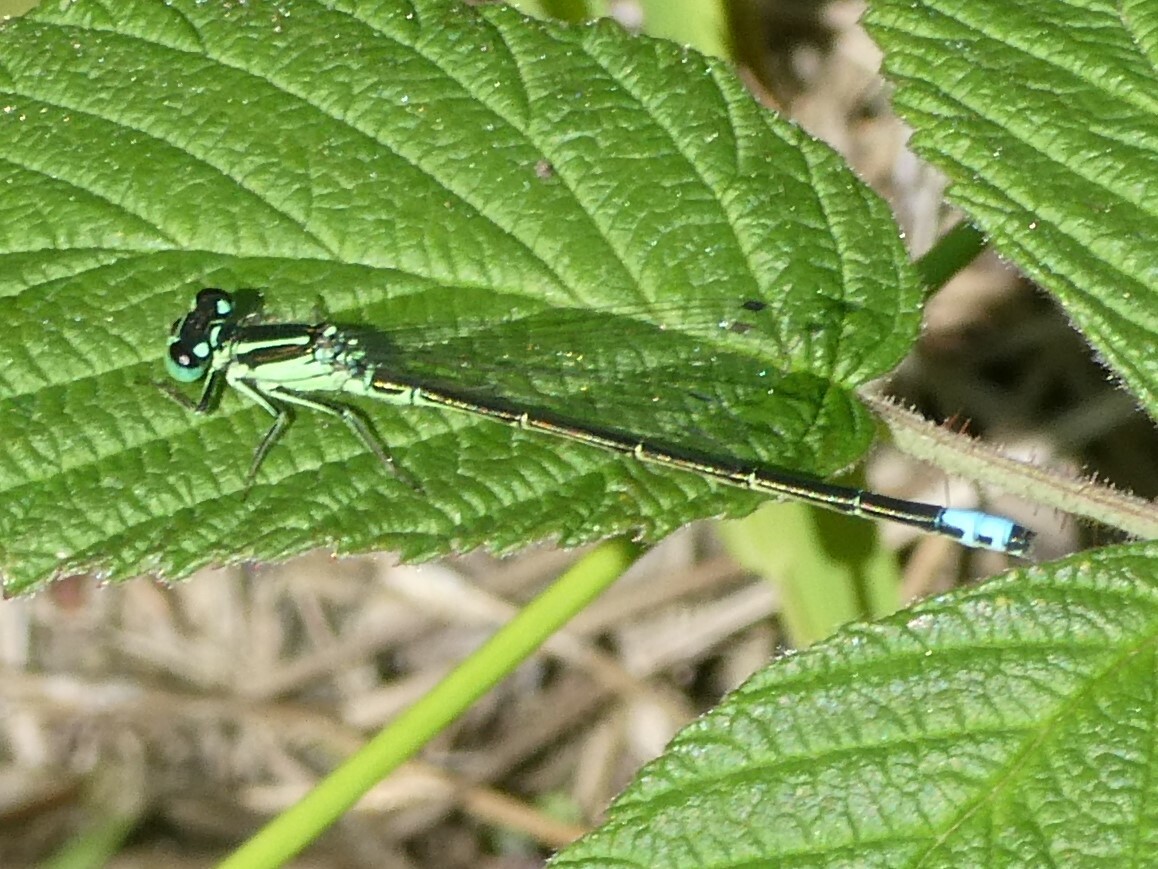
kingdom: Animalia
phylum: Arthropoda
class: Insecta
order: Odonata
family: Coenagrionidae
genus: Ischnura
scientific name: Ischnura verticalis
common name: Eastern forktail
